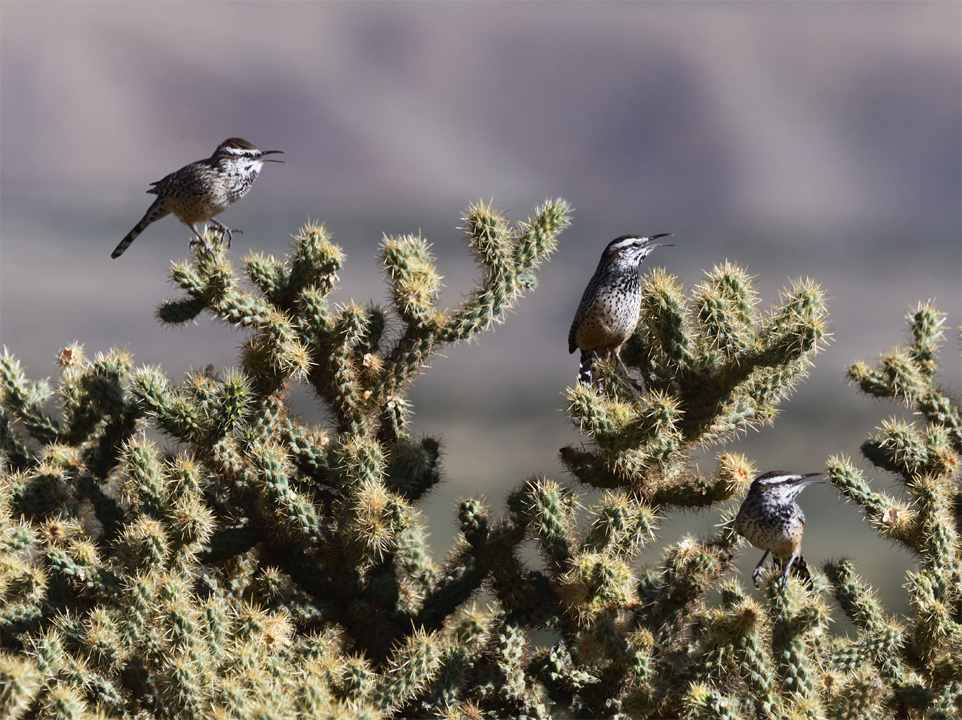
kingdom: Animalia
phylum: Chordata
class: Aves
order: Passeriformes
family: Troglodytidae
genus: Campylorhynchus
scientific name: Campylorhynchus brunneicapillus
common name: Cactus wren
